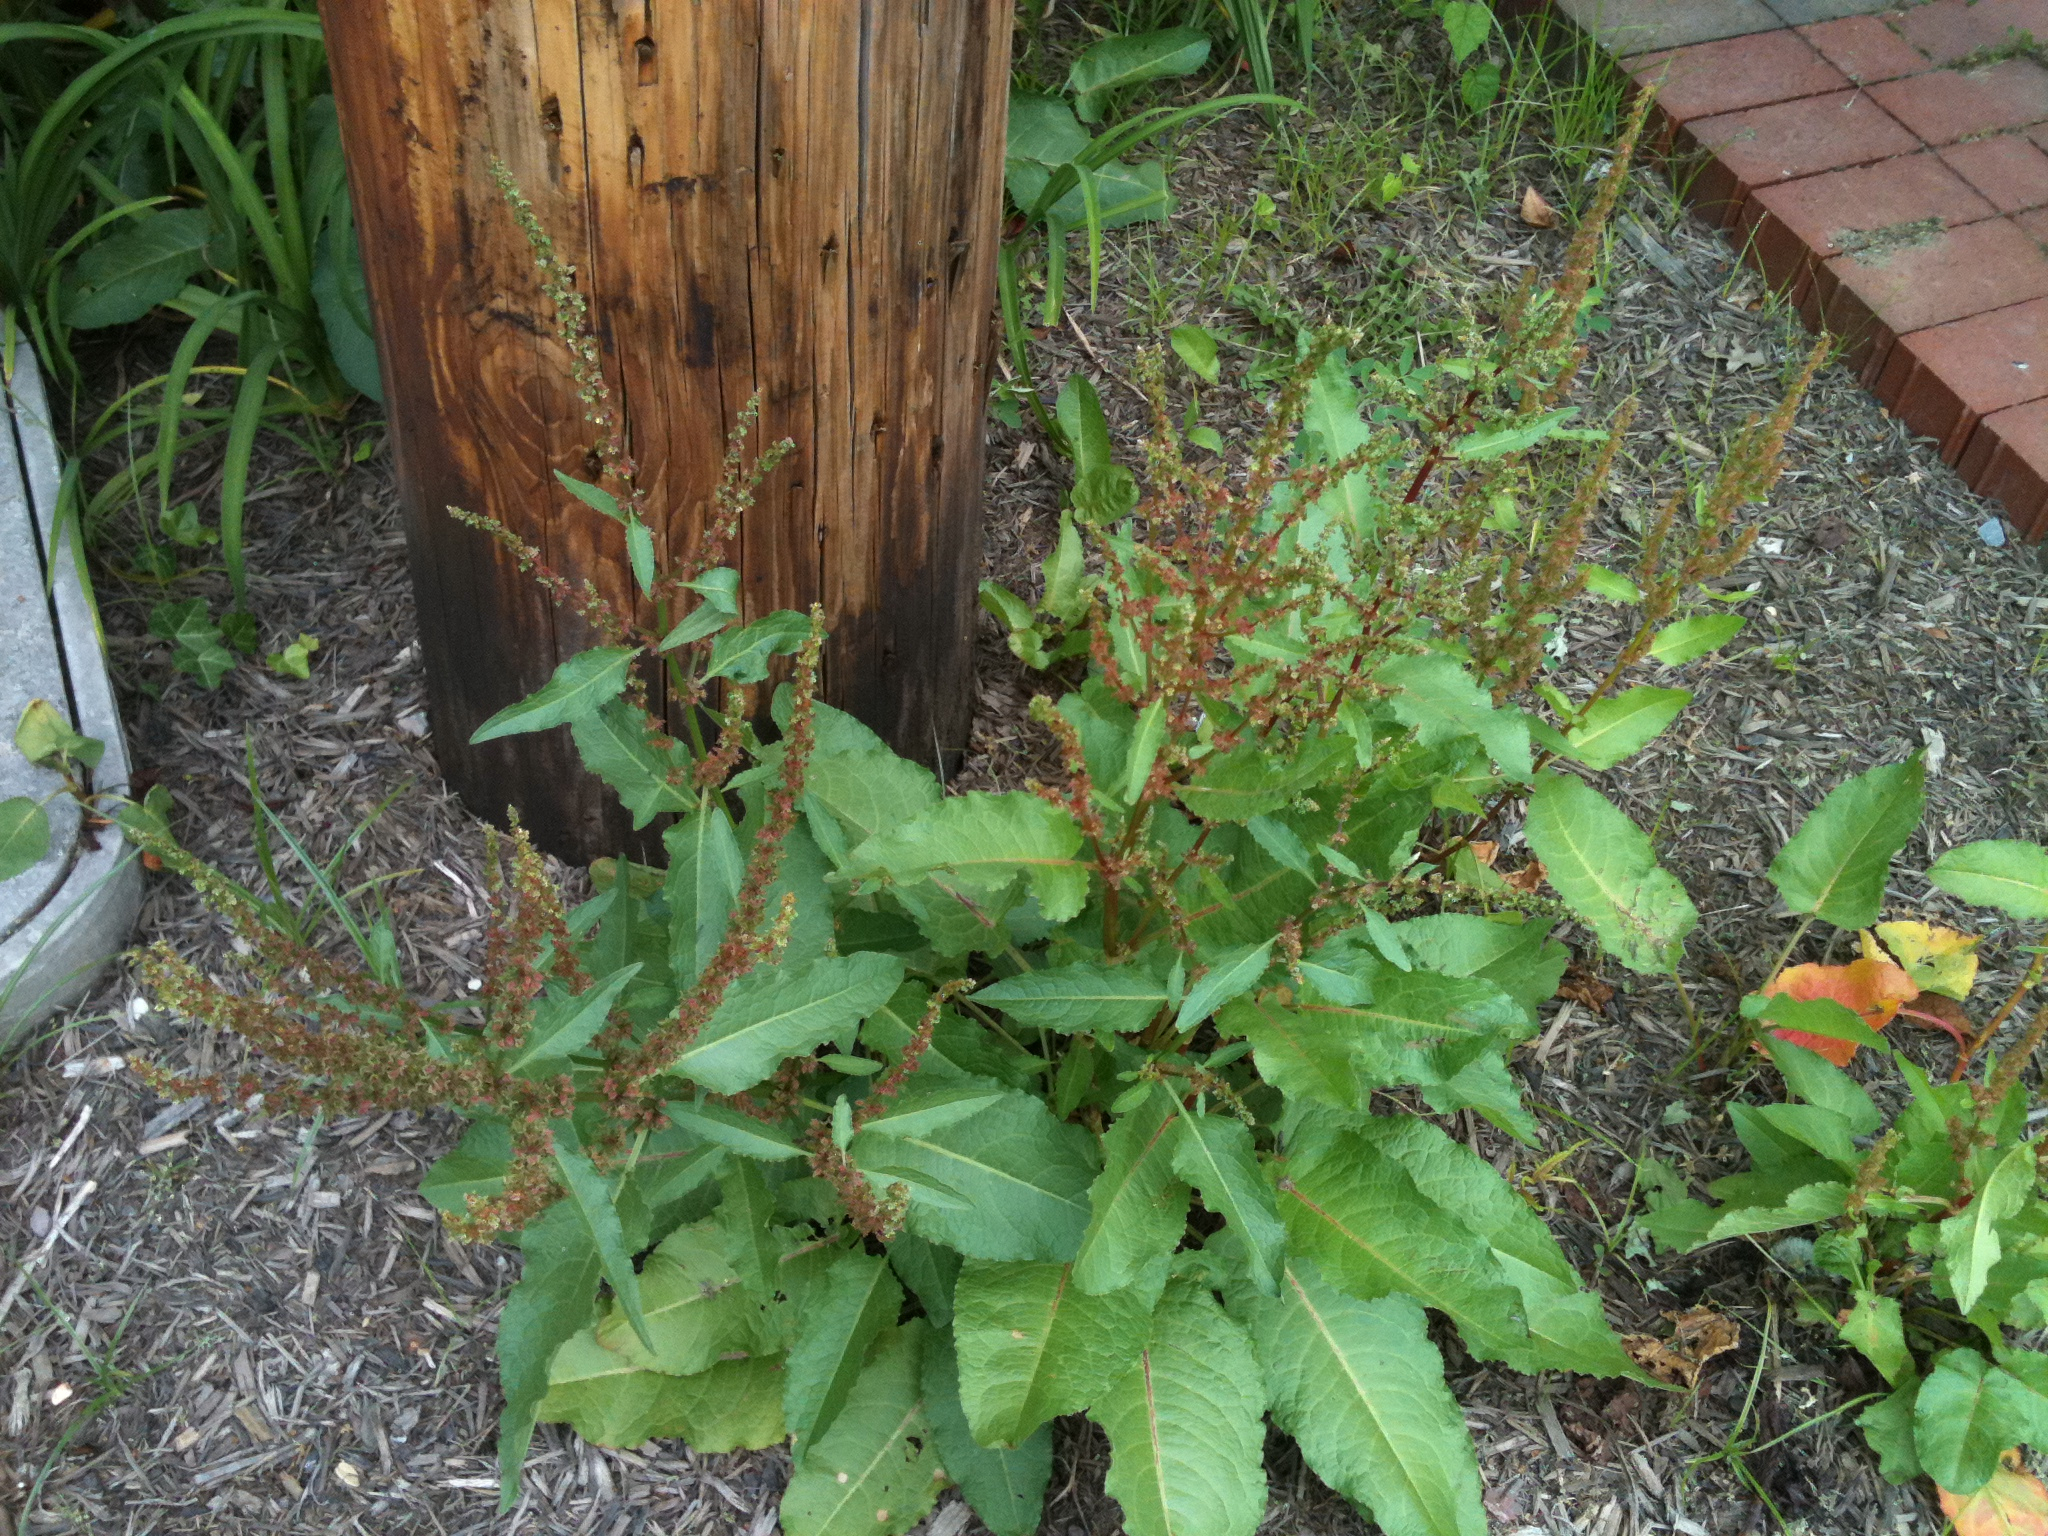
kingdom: Plantae
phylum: Tracheophyta
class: Magnoliopsida
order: Caryophyllales
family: Polygonaceae
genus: Rumex
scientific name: Rumex obtusifolius
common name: Bitter dock
